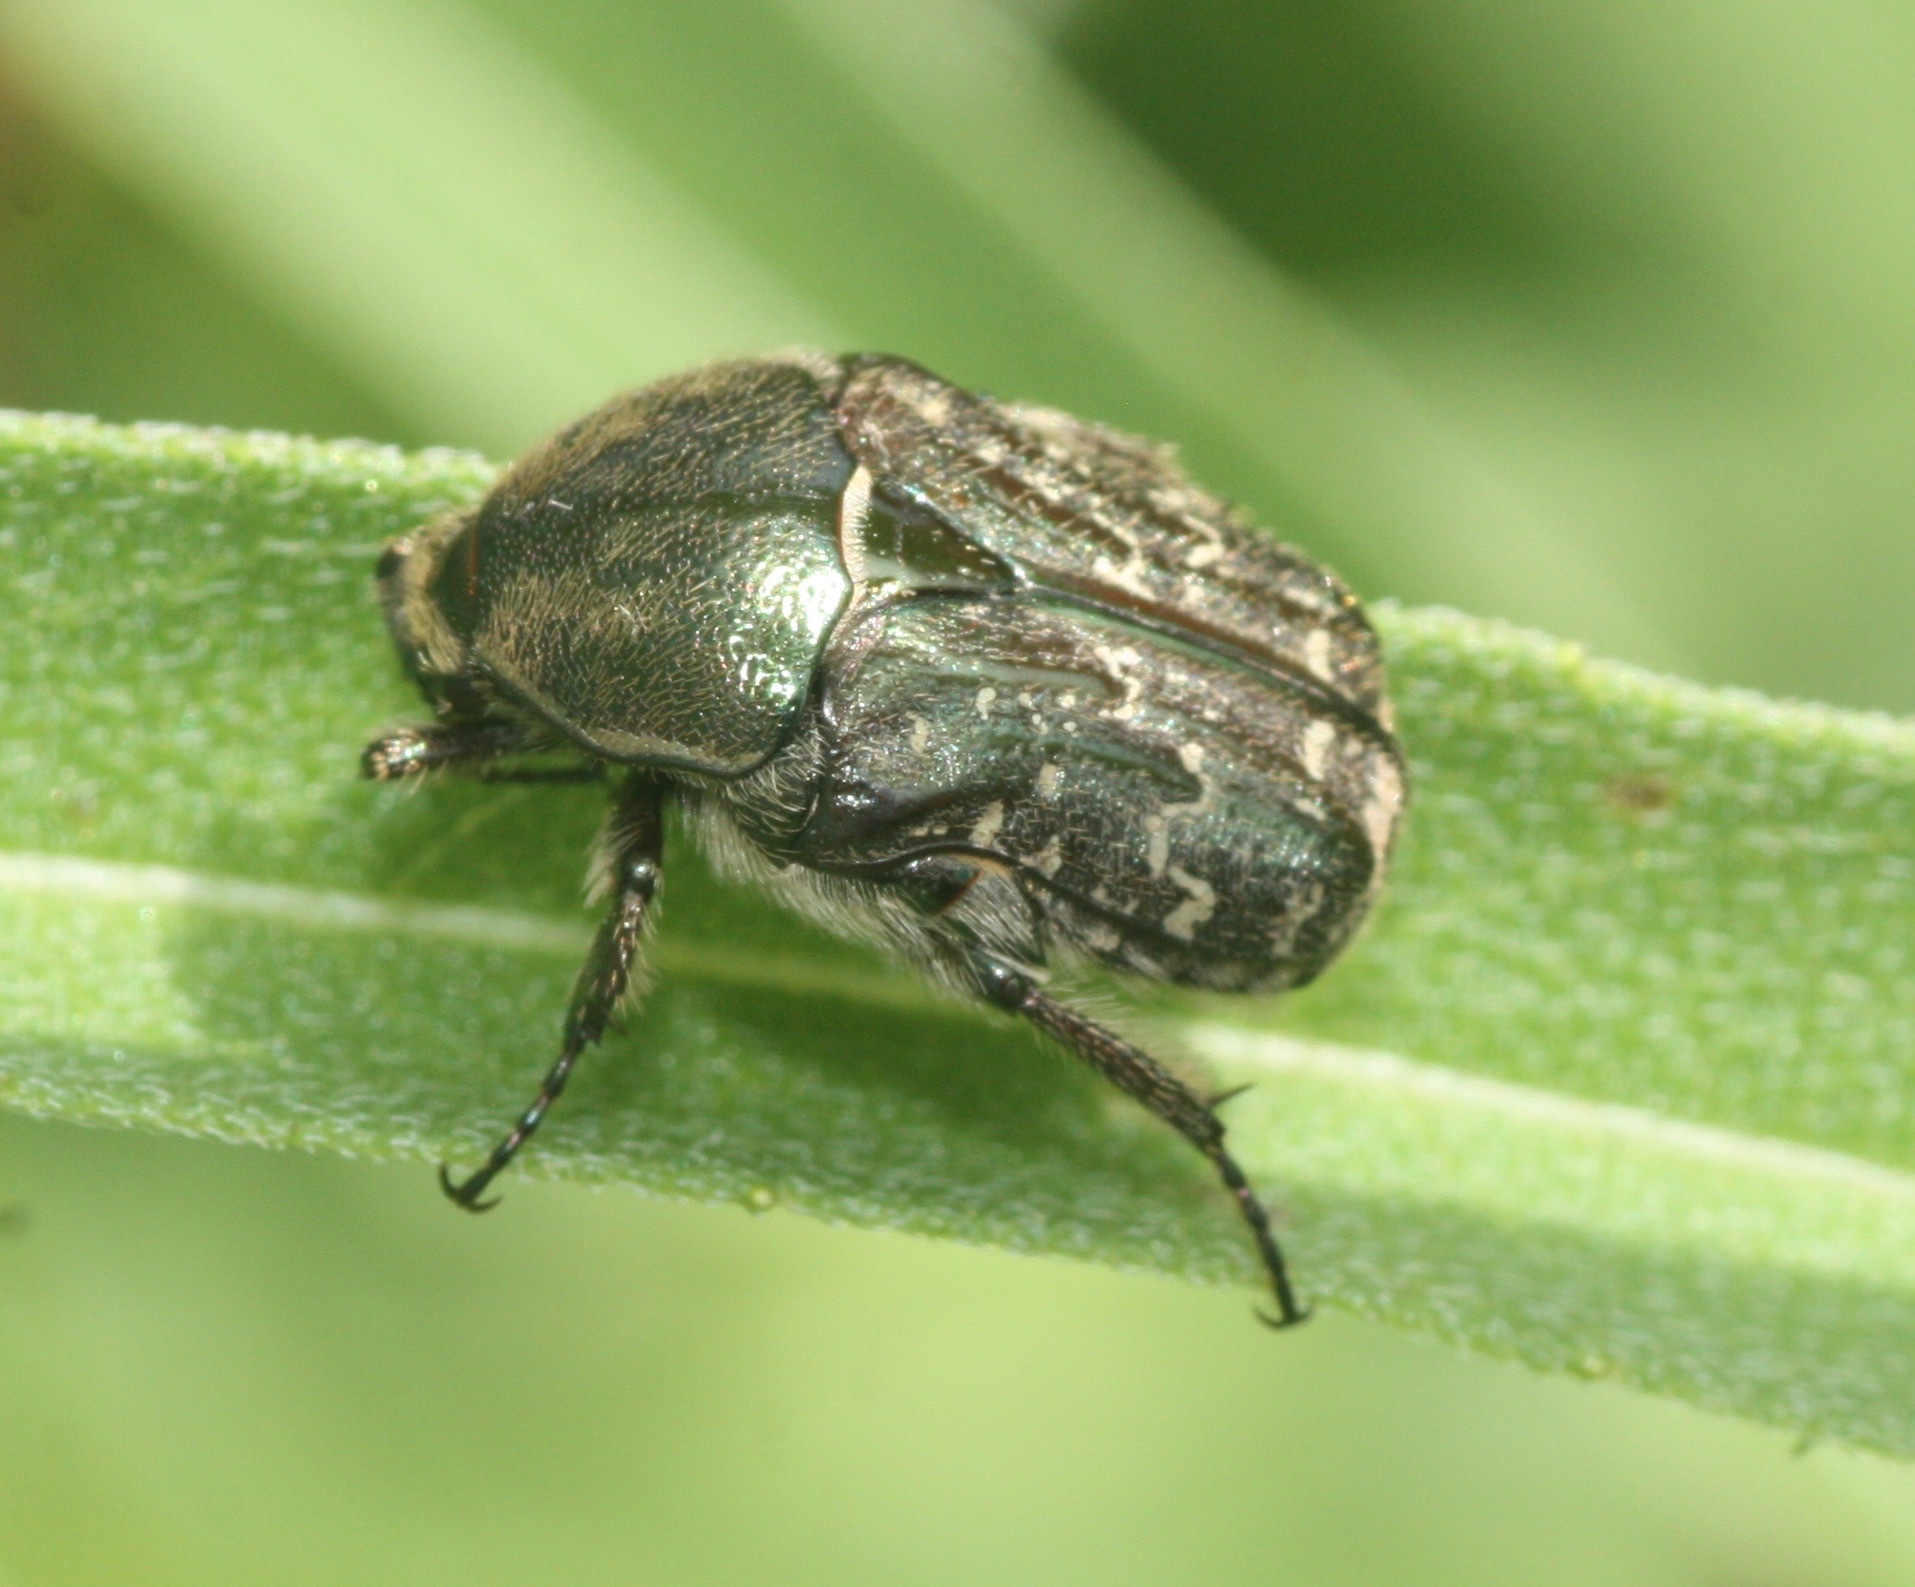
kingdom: Animalia
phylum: Arthropoda
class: Insecta
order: Coleoptera
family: Scarabaeidae
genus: Euphoria
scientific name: Euphoria sepulcralis
